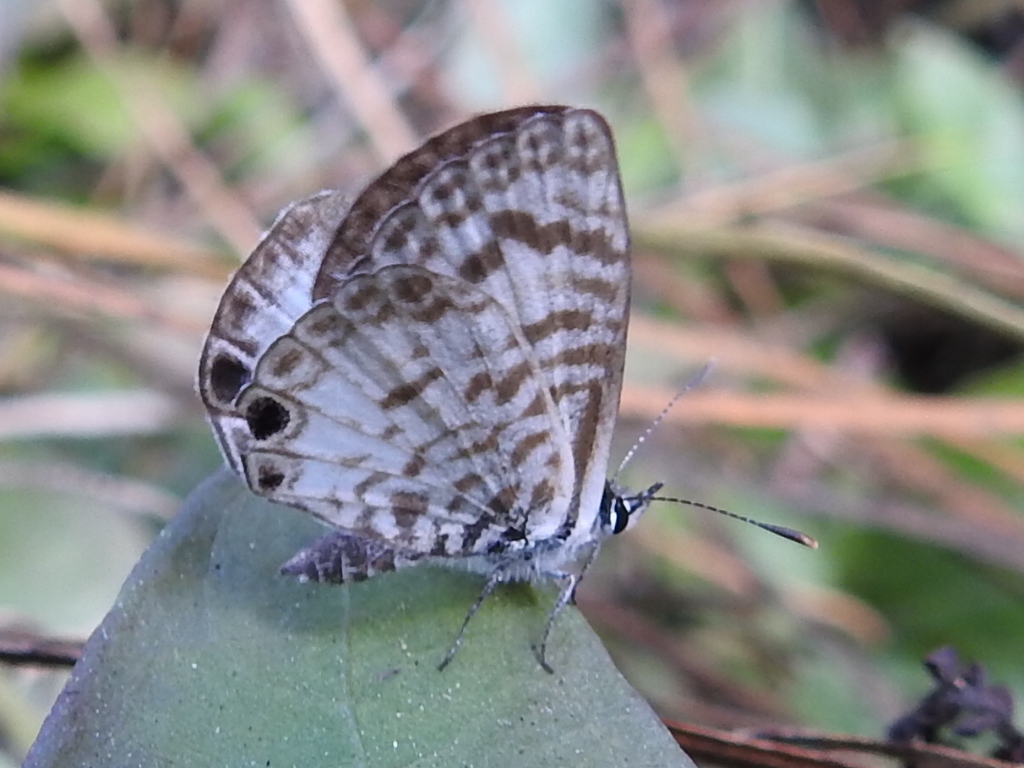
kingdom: Animalia
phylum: Arthropoda
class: Insecta
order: Lepidoptera
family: Lycaenidae
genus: Leptotes
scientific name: Leptotes cassius
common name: Cassius blue
